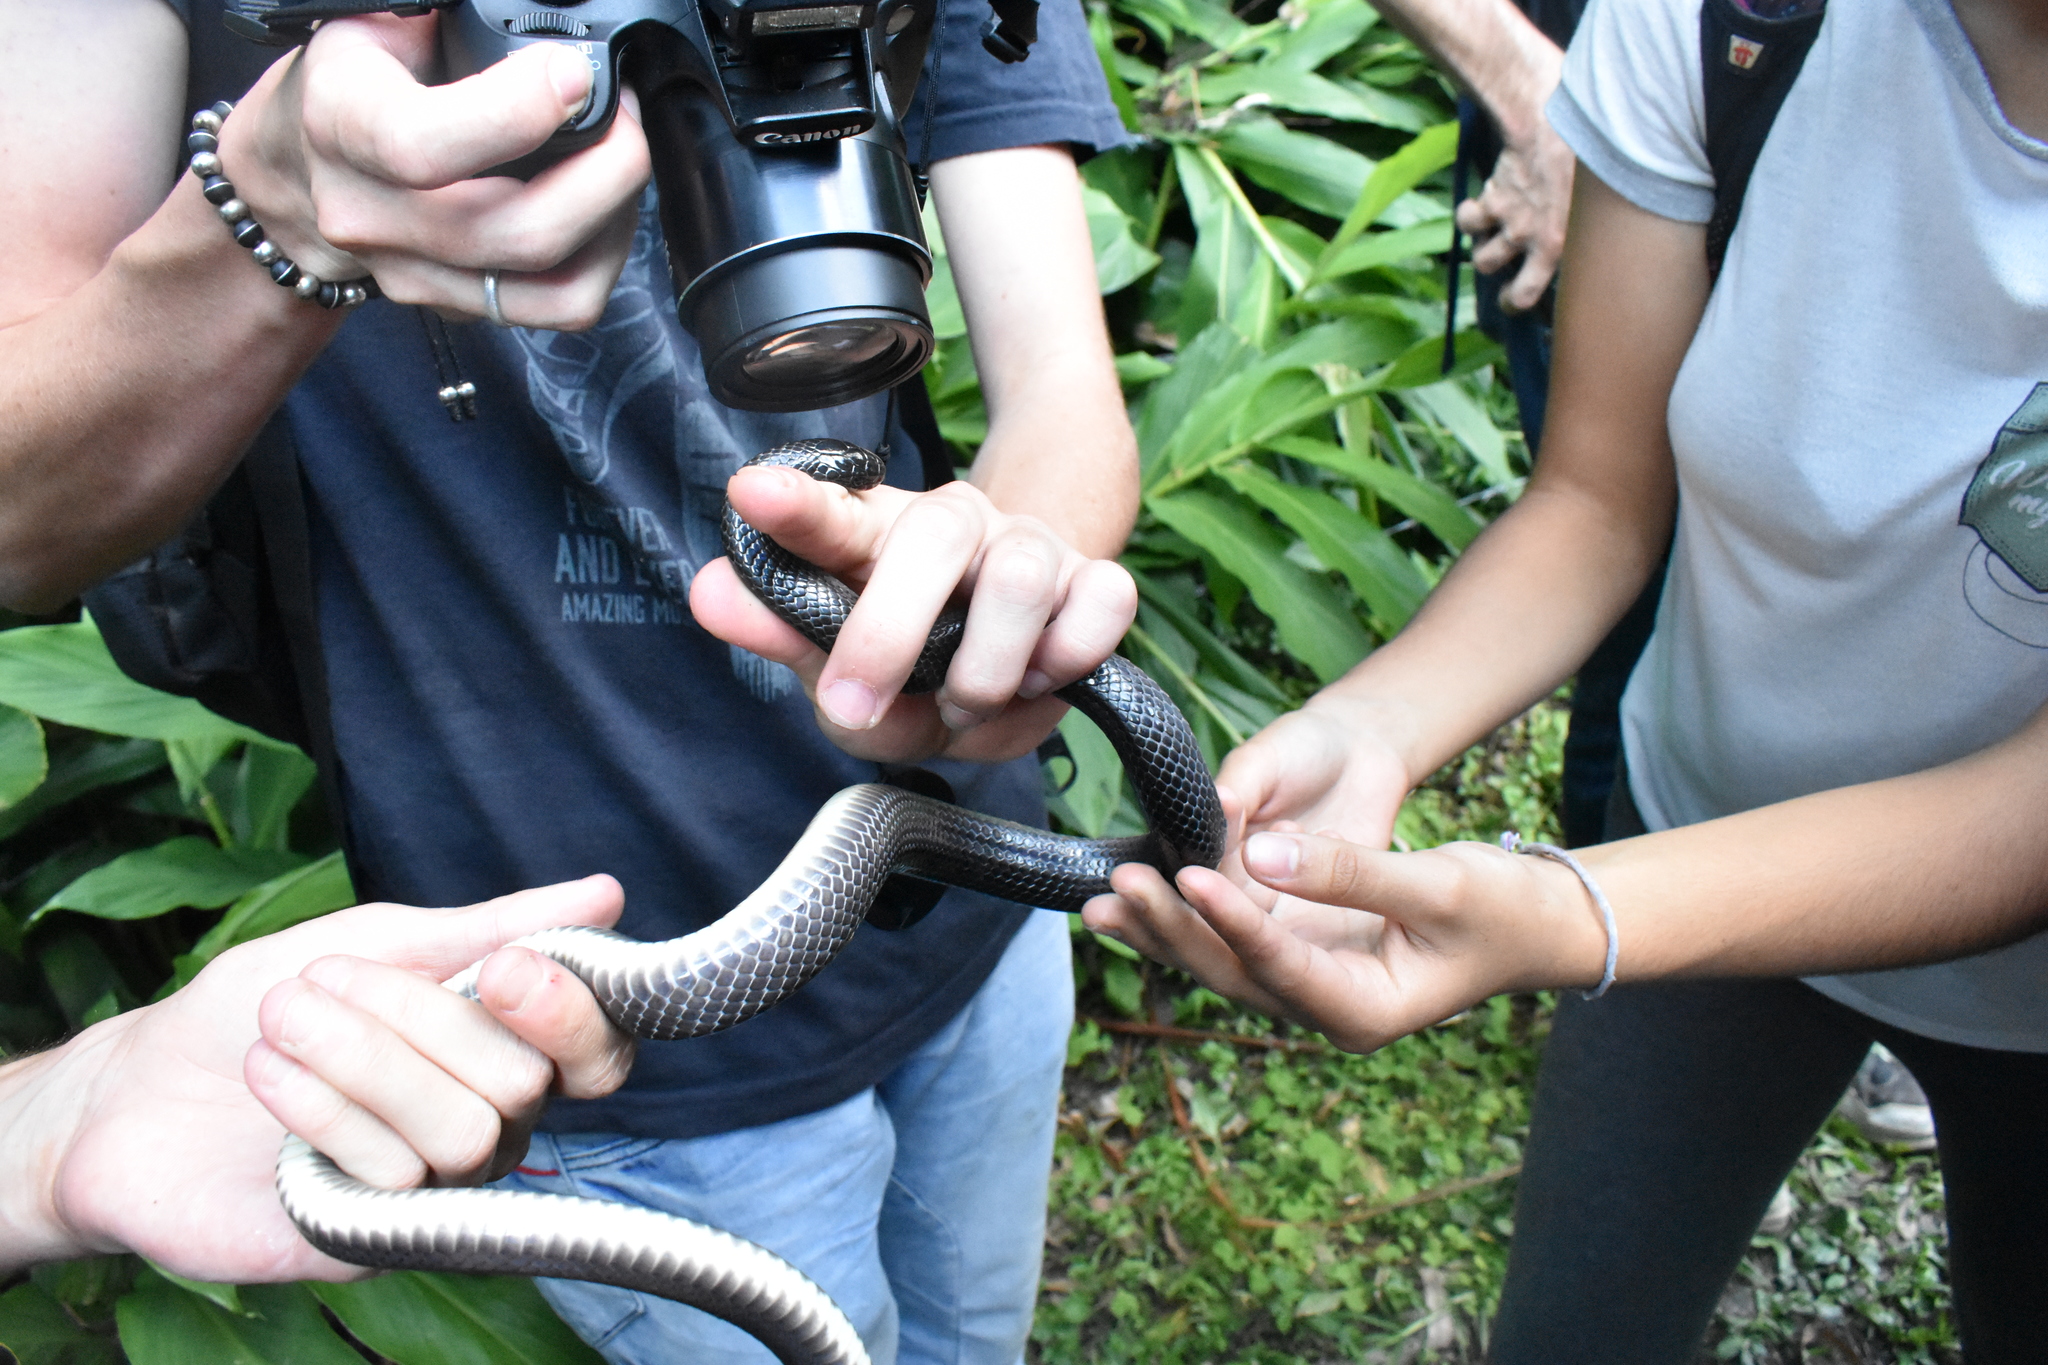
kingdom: Animalia
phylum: Chordata
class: Squamata
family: Colubridae
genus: Clelia
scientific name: Clelia equatoriana
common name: Equatorial mussurana
